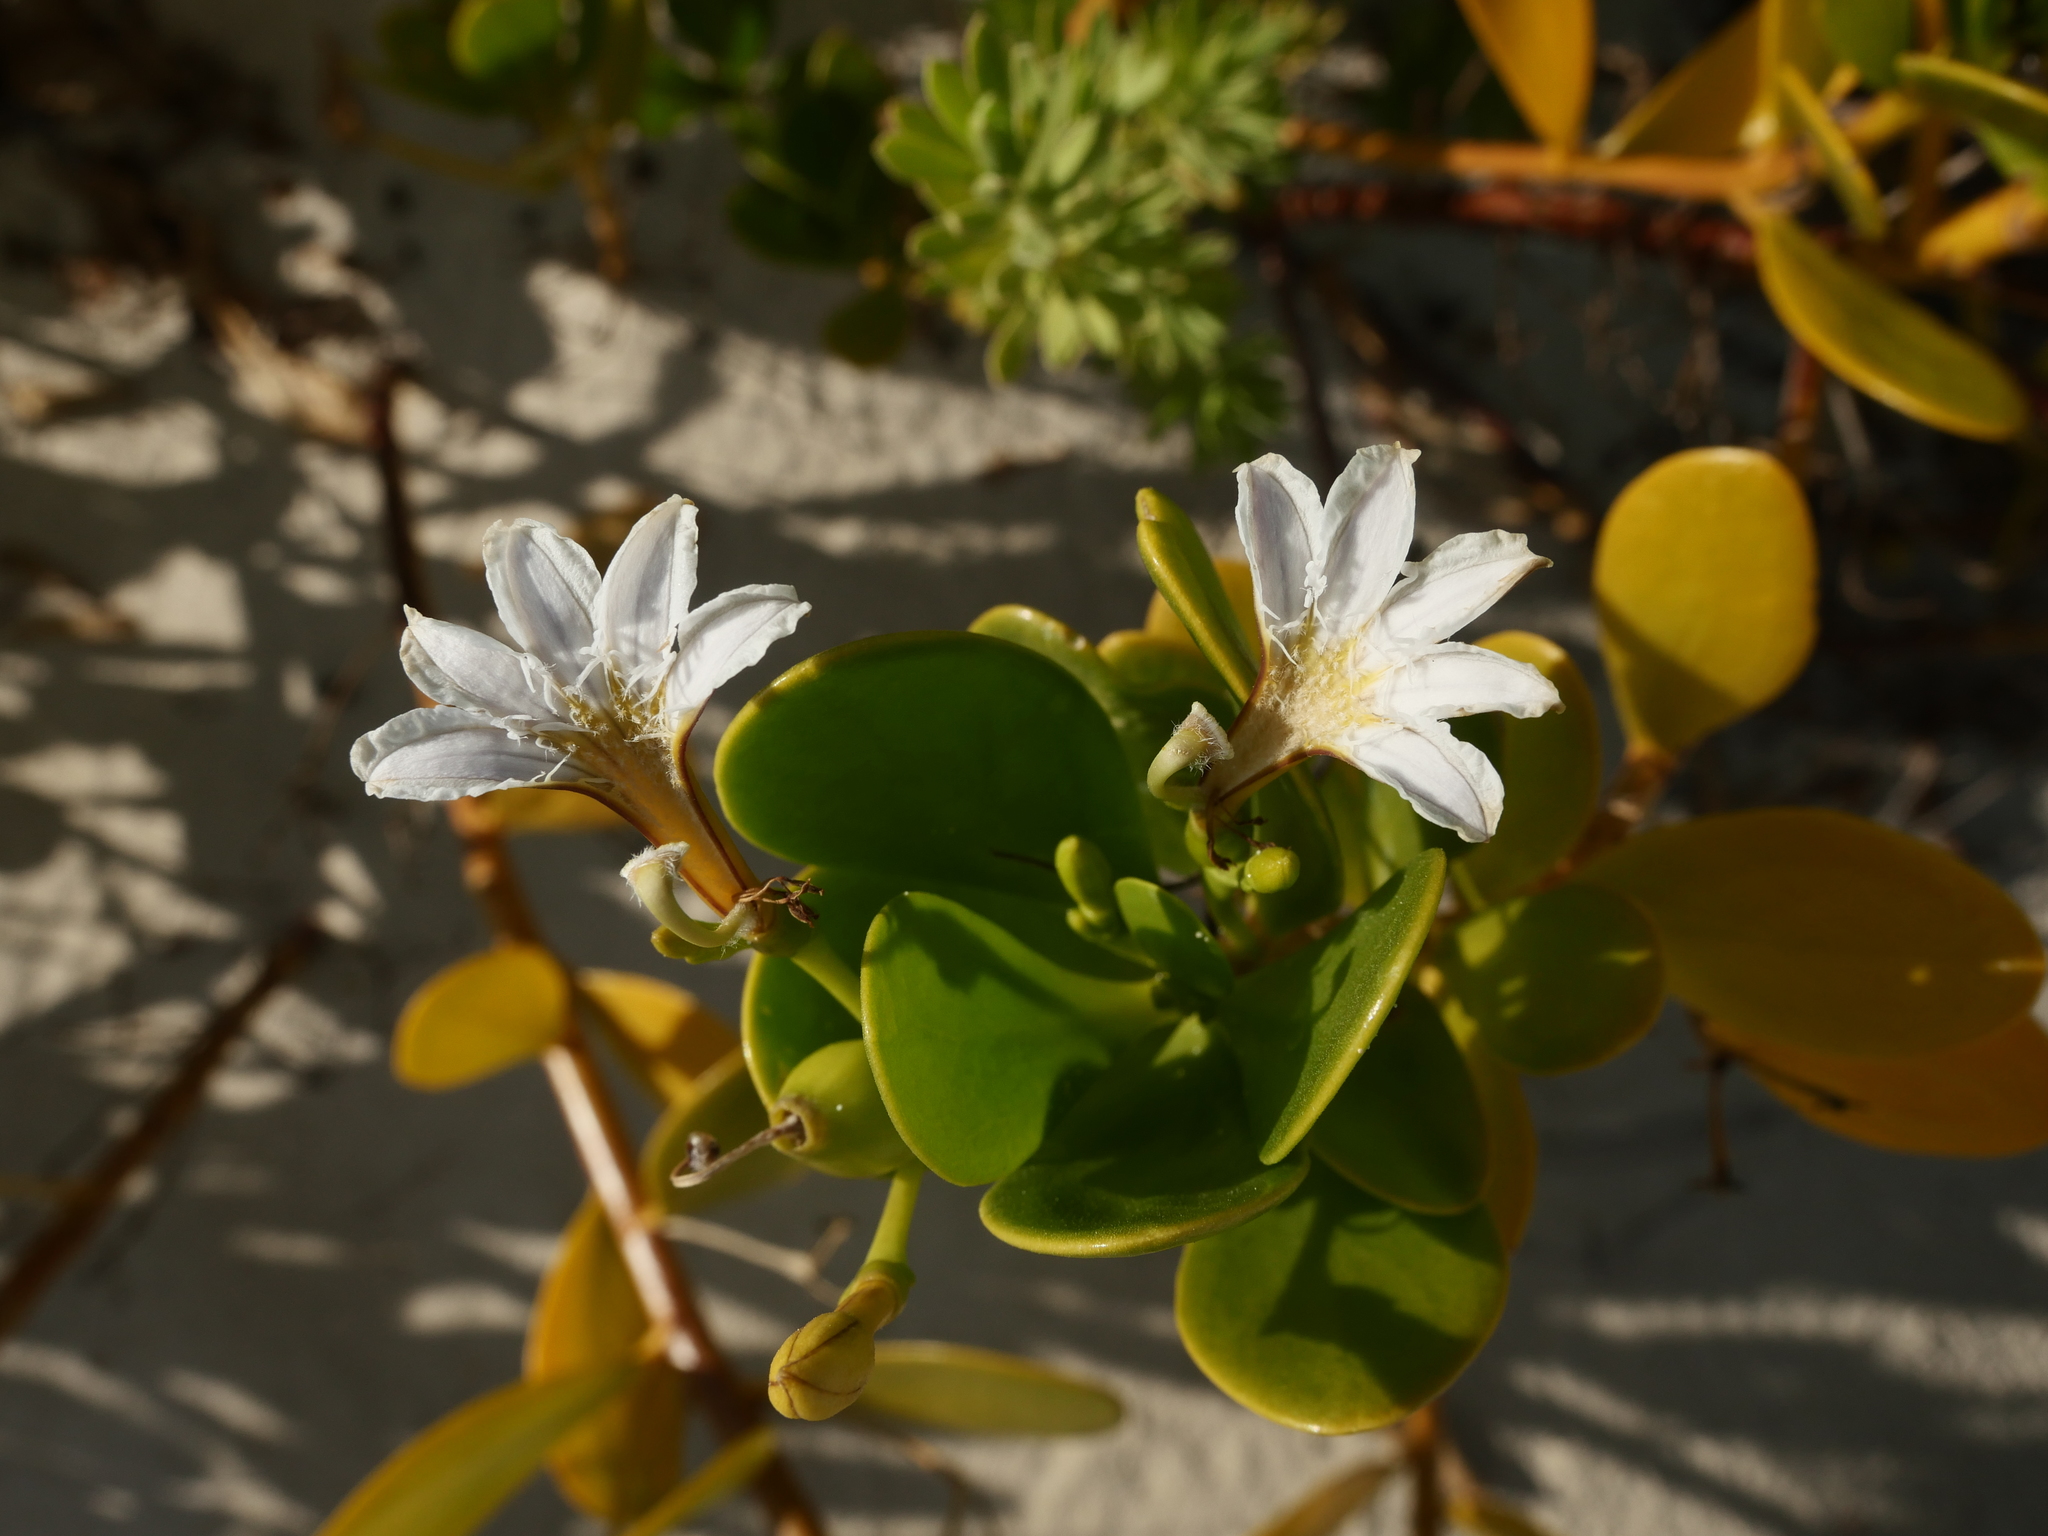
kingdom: Plantae
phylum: Tracheophyta
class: Magnoliopsida
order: Asterales
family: Goodeniaceae
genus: Scaevola
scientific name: Scaevola plumieri
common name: Gull feed
